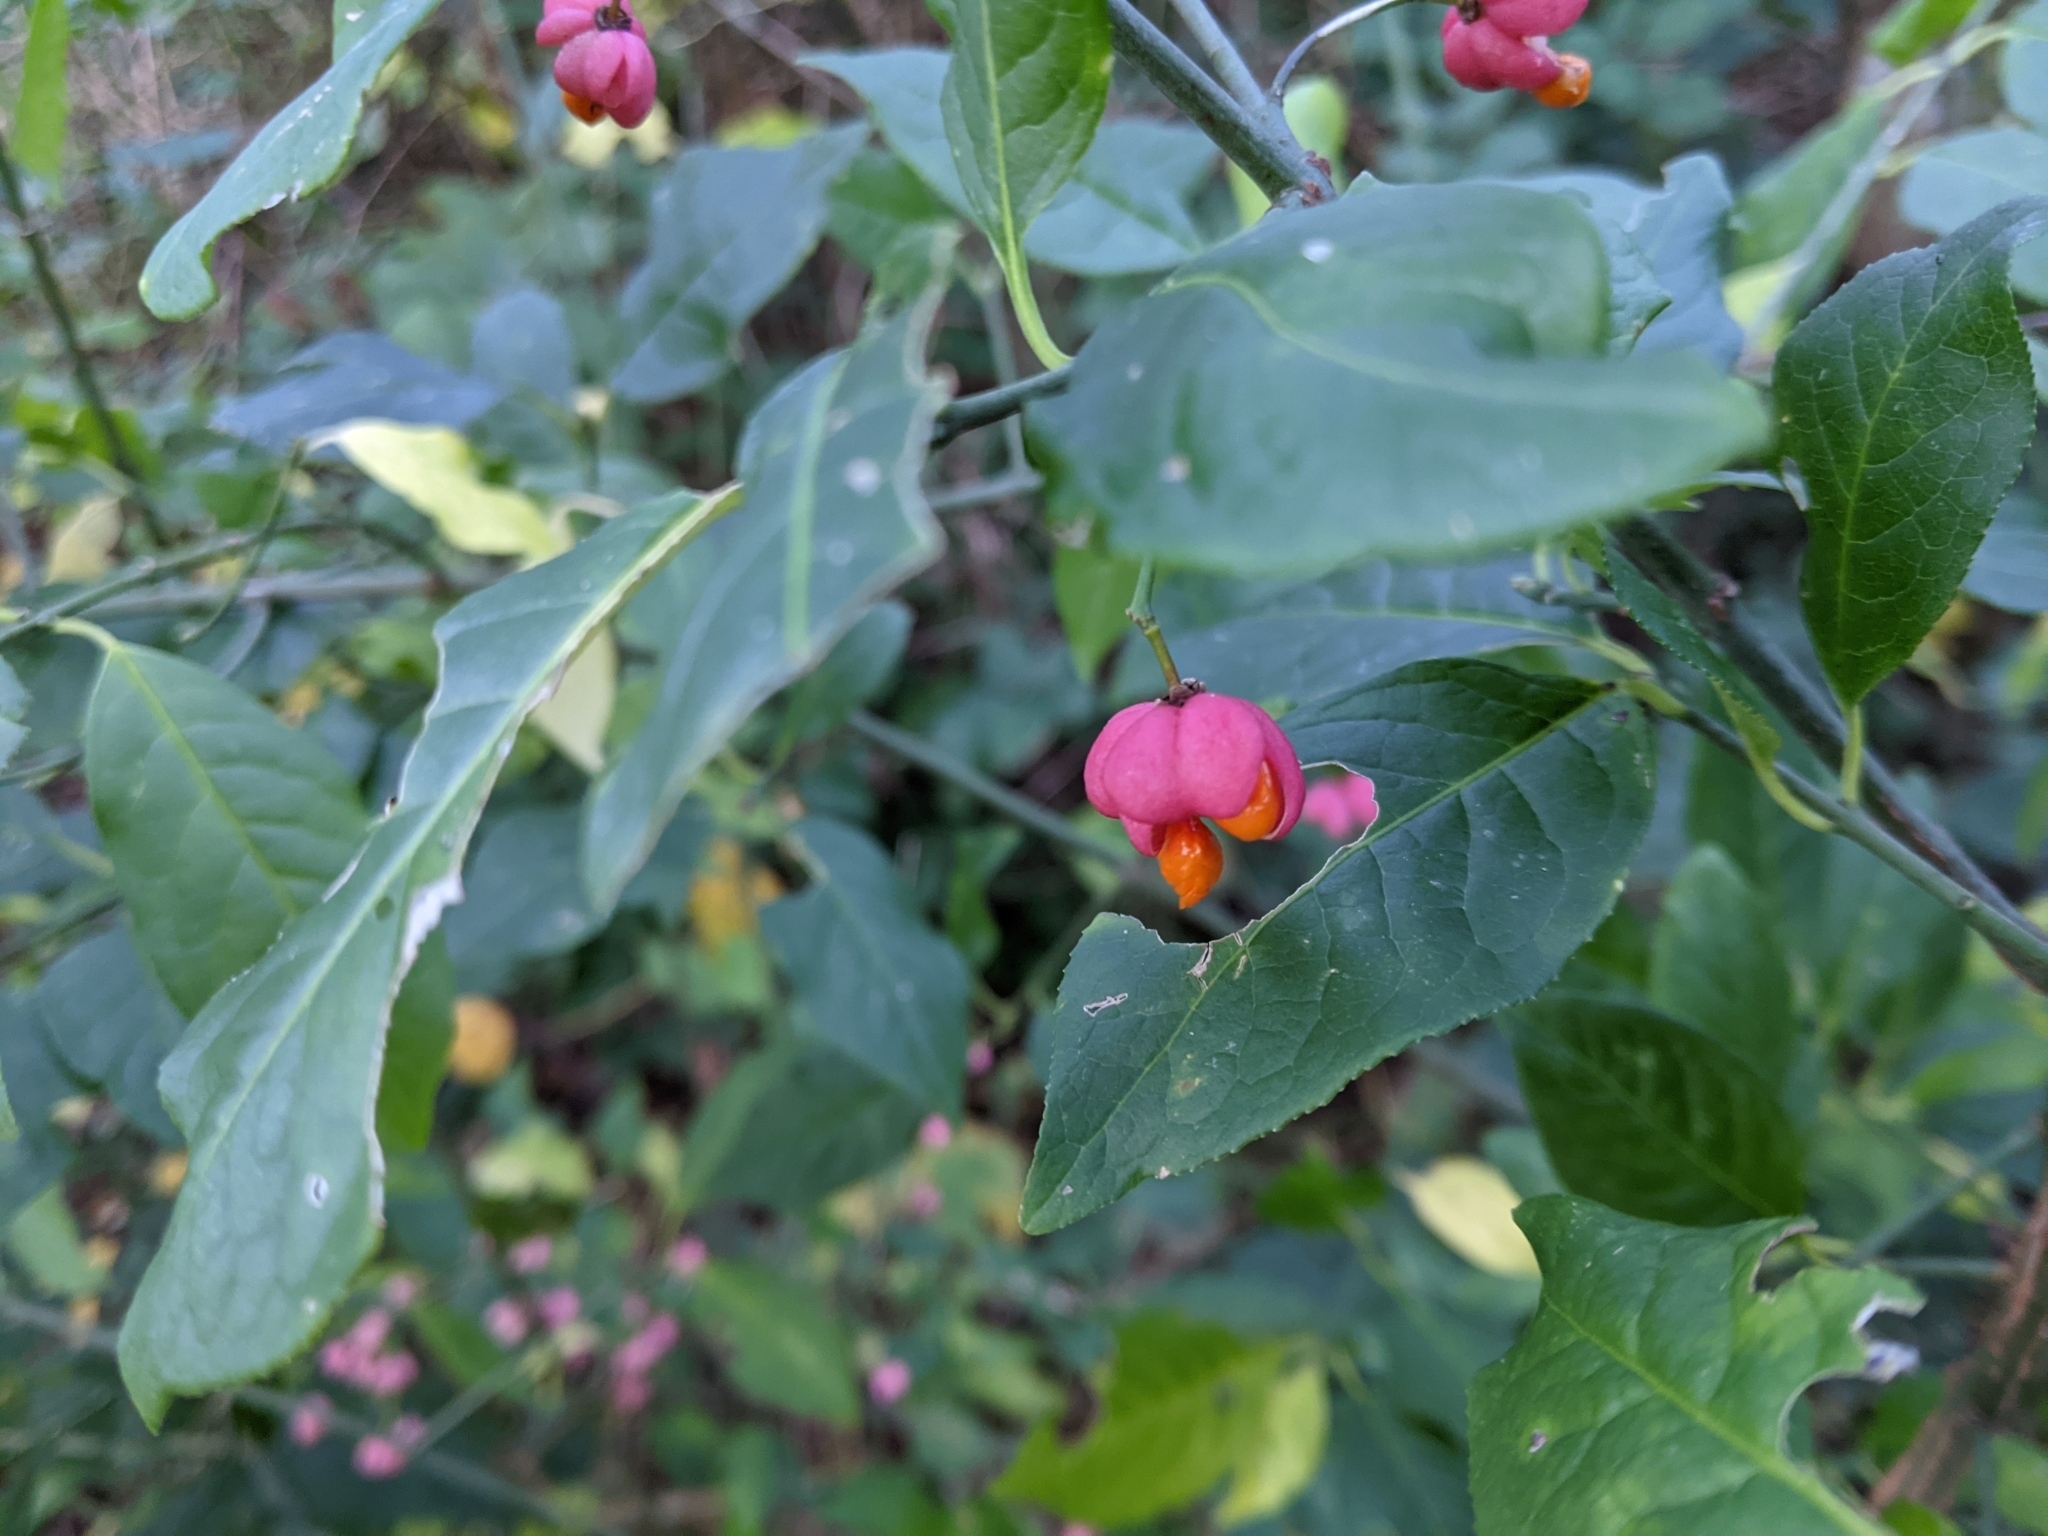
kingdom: Plantae
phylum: Tracheophyta
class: Magnoliopsida
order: Celastrales
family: Celastraceae
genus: Euonymus
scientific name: Euonymus europaeus
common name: Spindle
